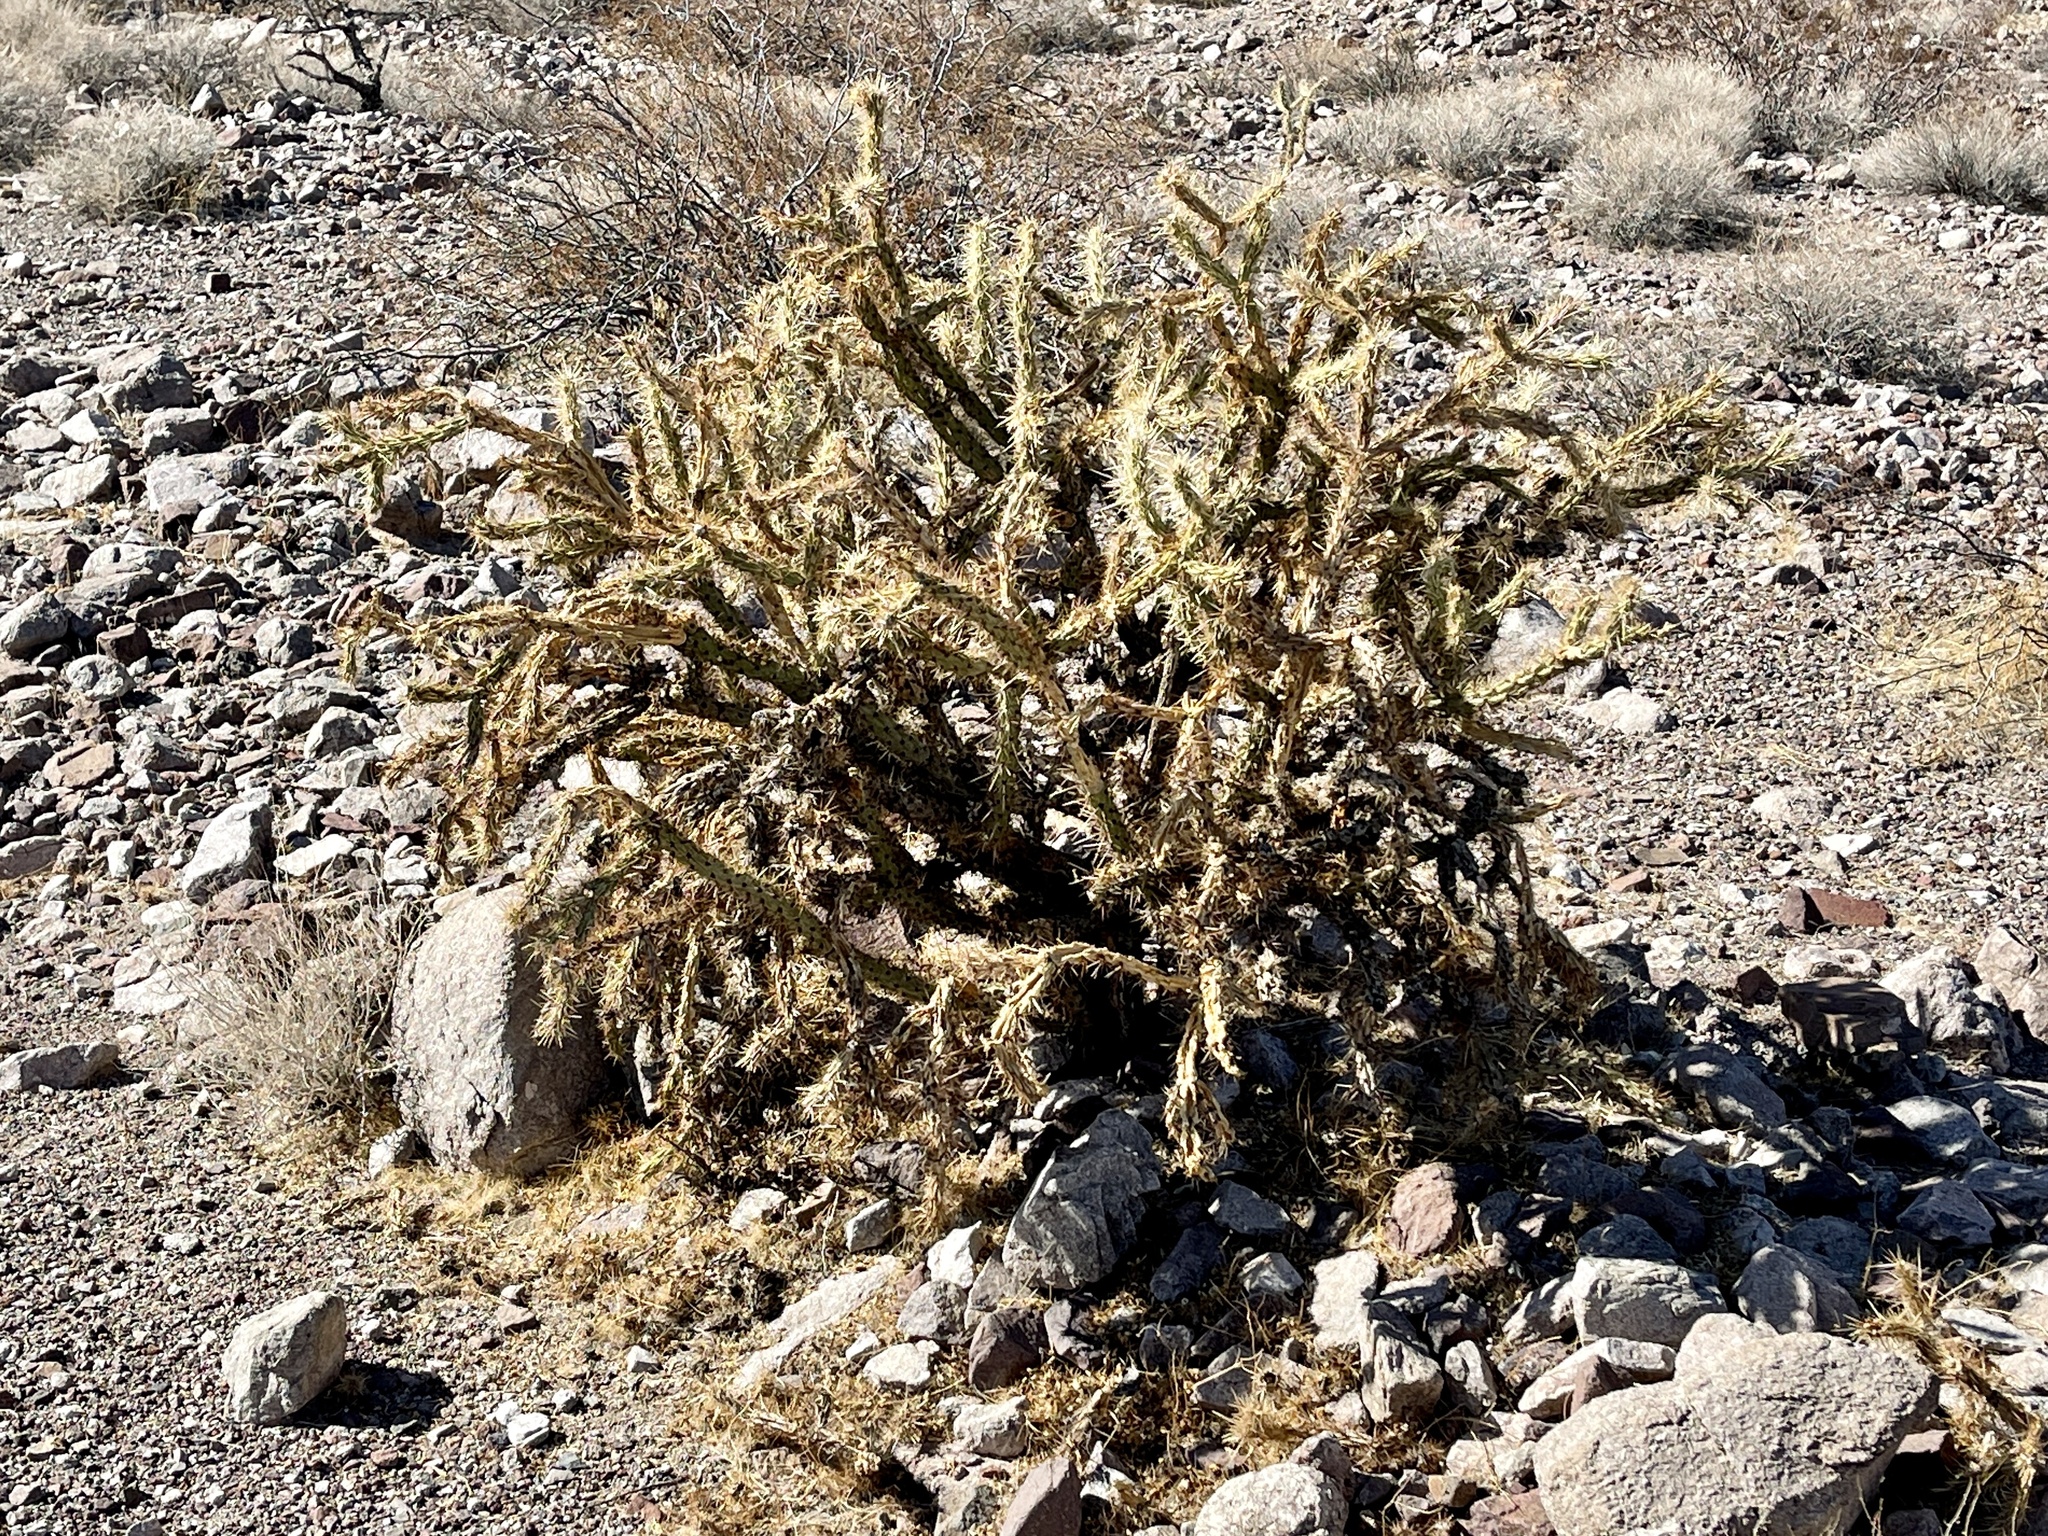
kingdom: Plantae
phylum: Tracheophyta
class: Magnoliopsida
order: Caryophyllales
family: Cactaceae
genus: Cylindropuntia
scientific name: Cylindropuntia acanthocarpa
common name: Buckhorn cholla
